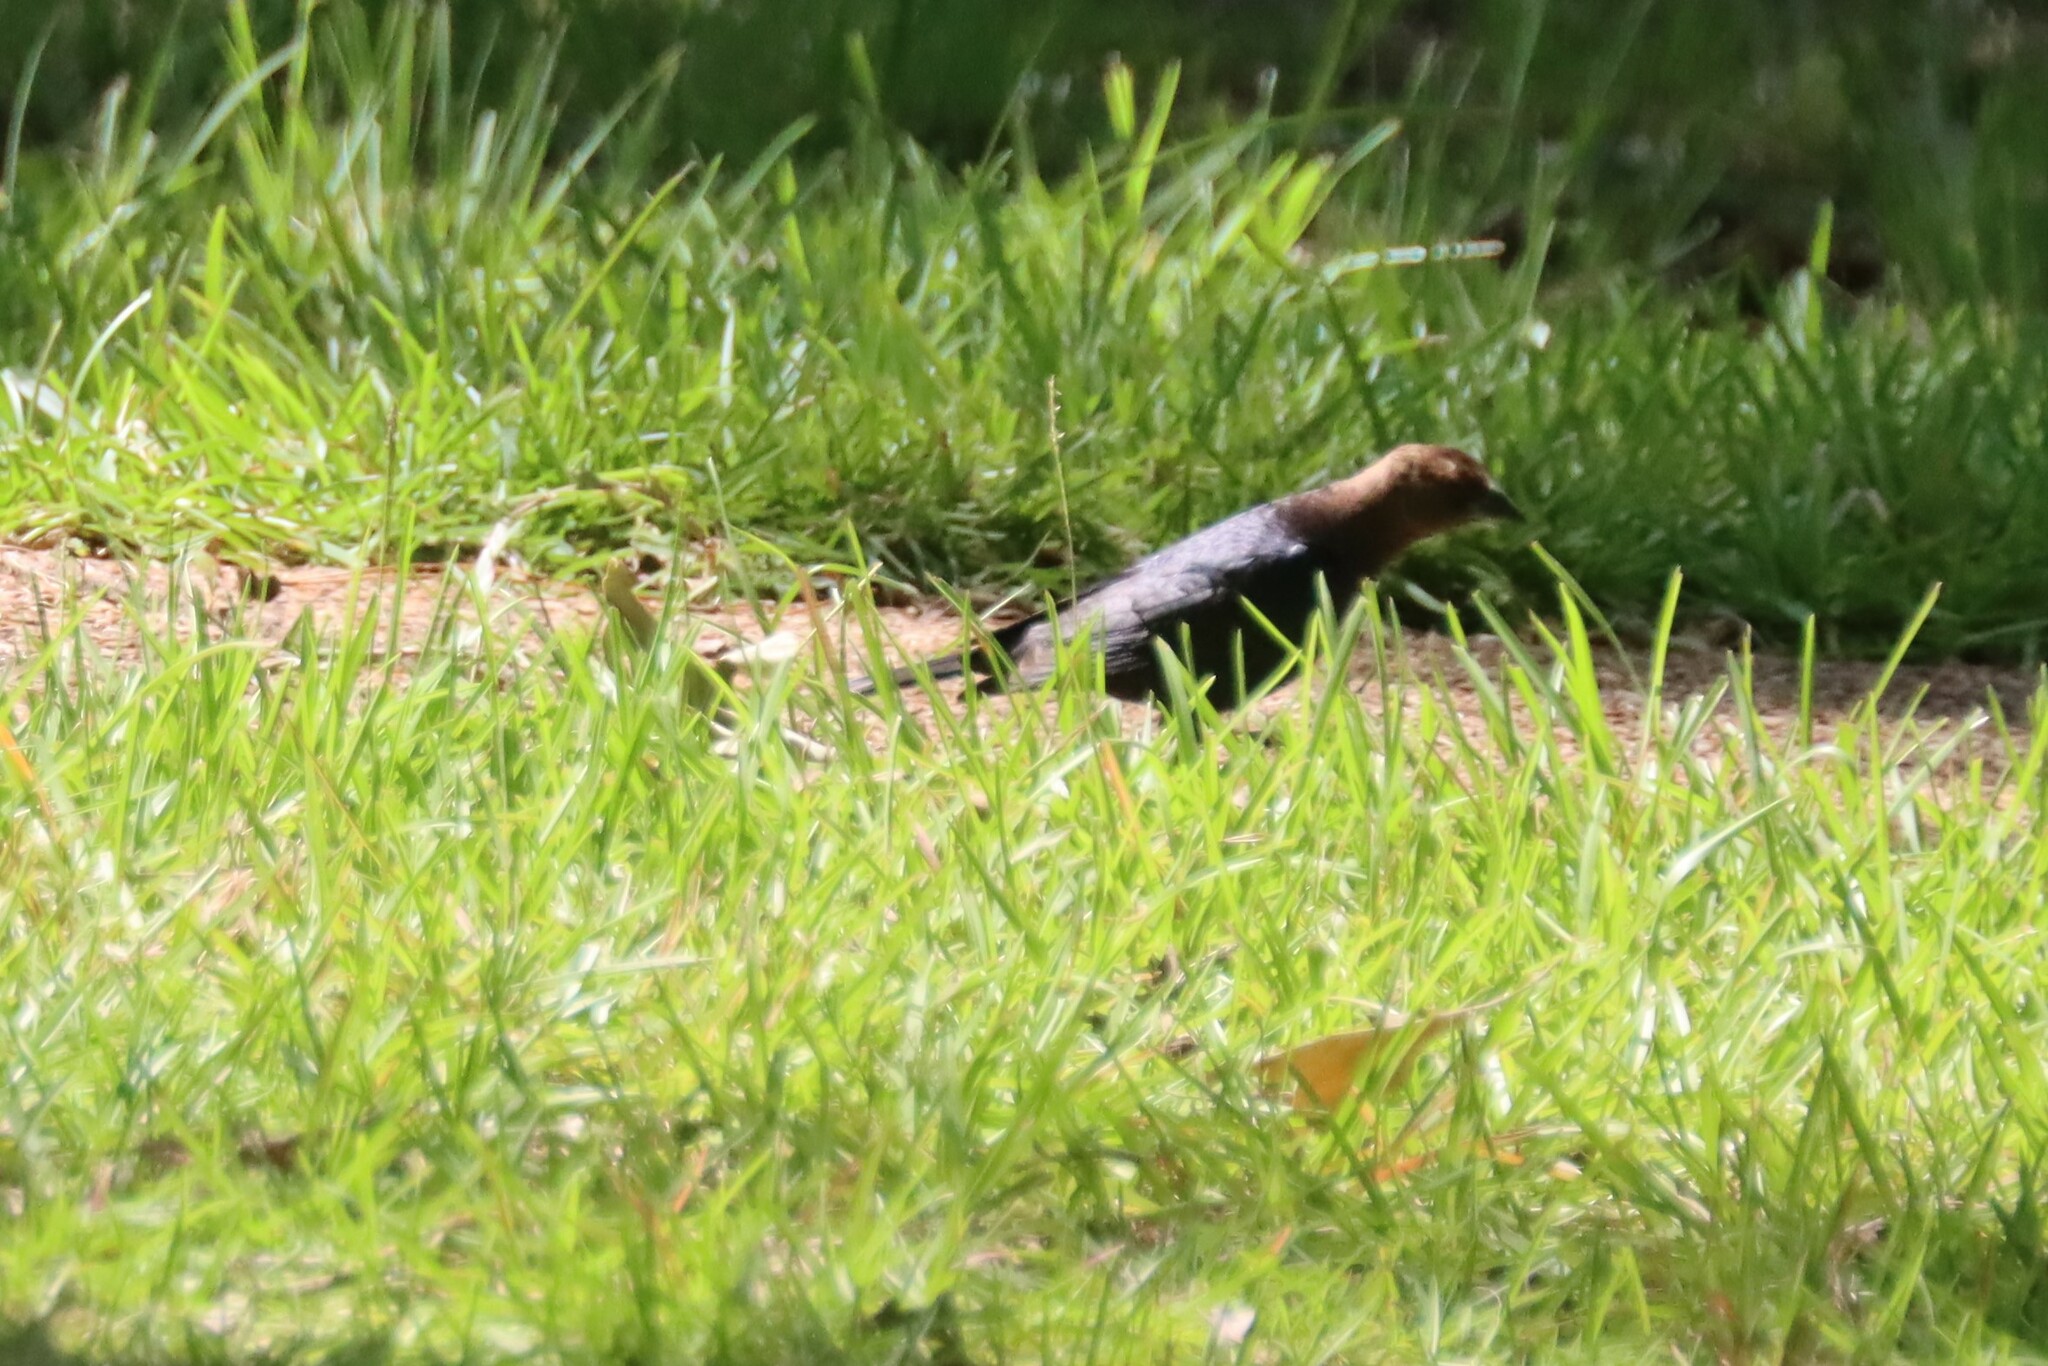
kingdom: Animalia
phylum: Chordata
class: Aves
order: Passeriformes
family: Icteridae
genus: Molothrus
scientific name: Molothrus ater
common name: Brown-headed cowbird
